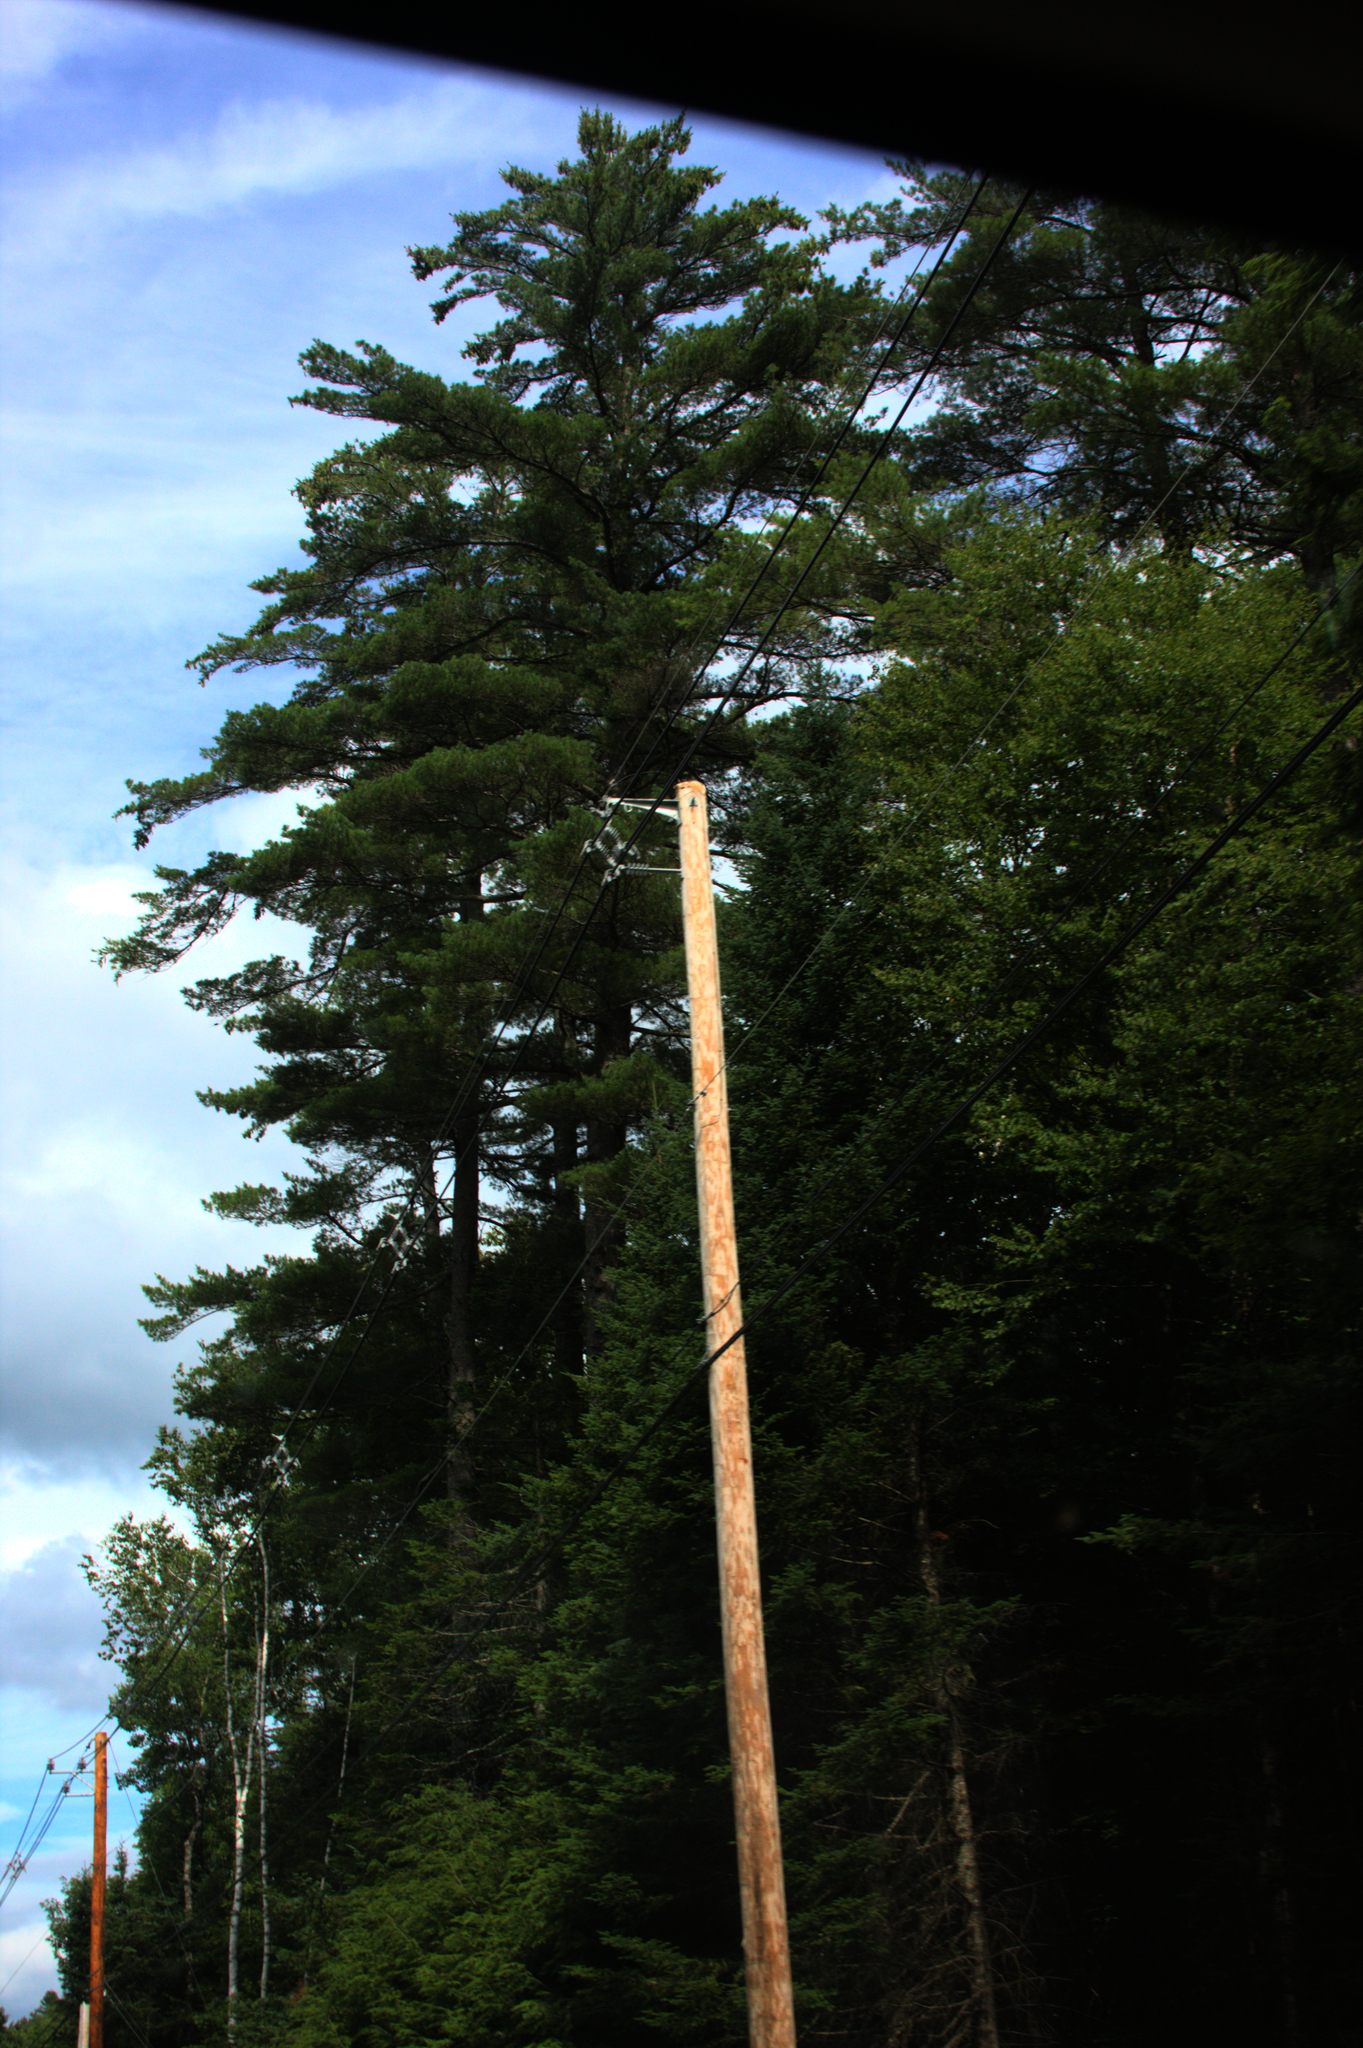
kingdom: Plantae
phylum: Tracheophyta
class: Pinopsida
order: Pinales
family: Pinaceae
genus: Pinus
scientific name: Pinus strobus
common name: Weymouth pine
